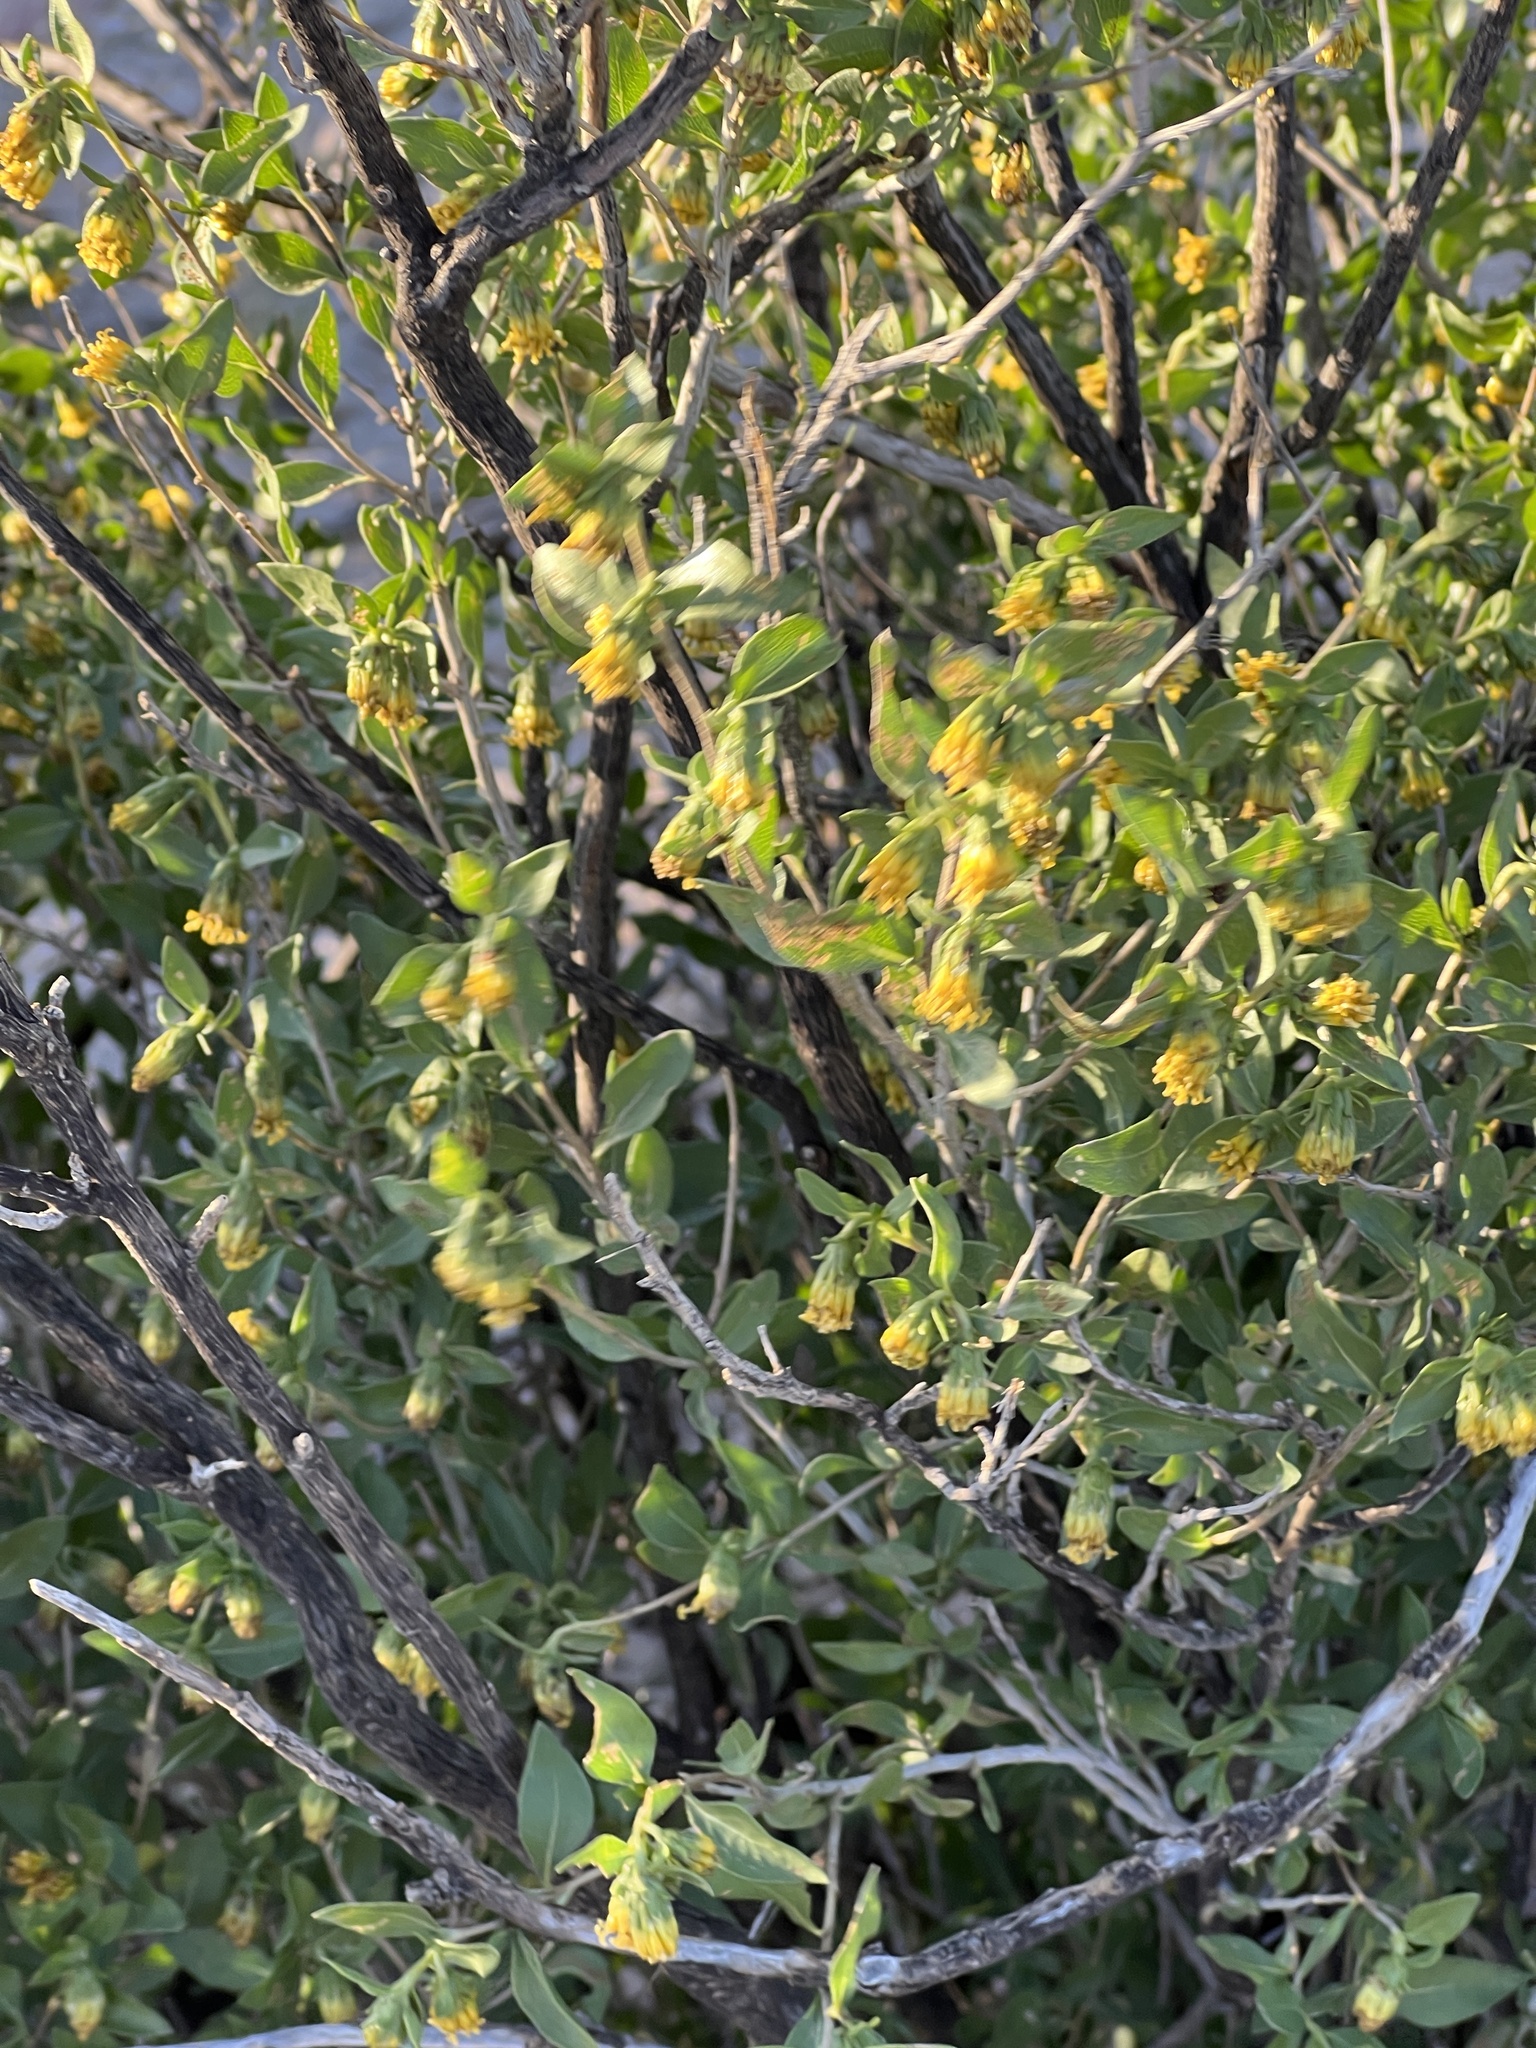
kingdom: Plantae
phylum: Tracheophyta
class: Magnoliopsida
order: Asterales
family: Asteraceae
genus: Flourensia
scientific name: Flourensia cernua
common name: Varnishbush
